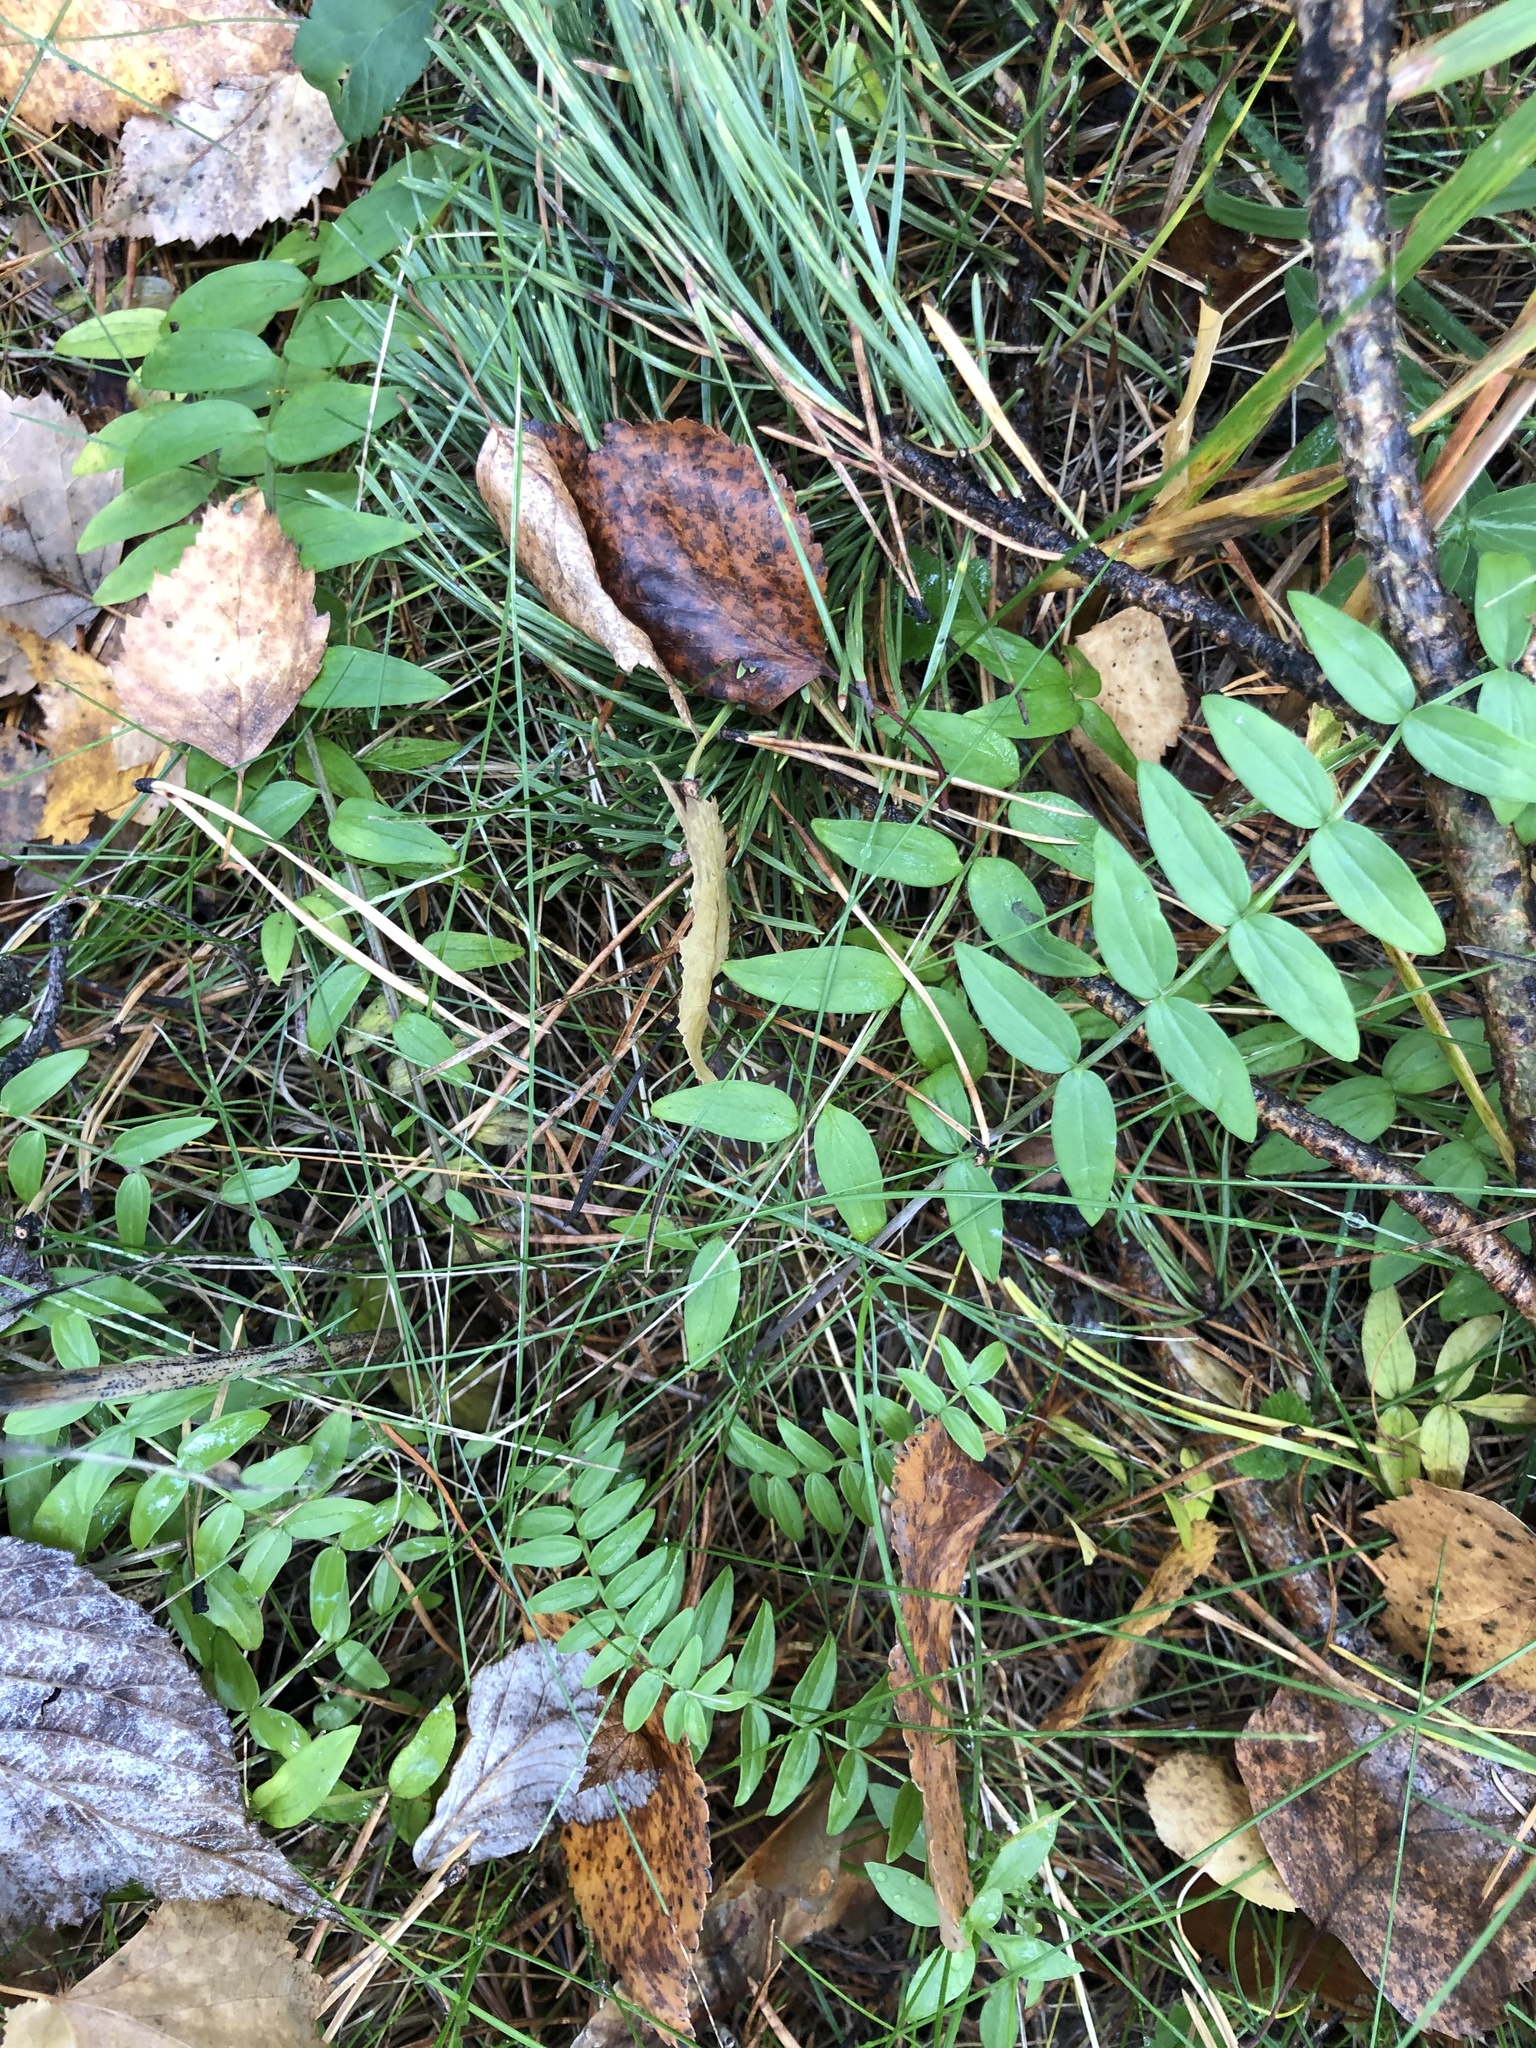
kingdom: Plantae
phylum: Tracheophyta
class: Magnoliopsida
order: Ericales
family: Polemoniaceae
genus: Polemonium
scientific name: Polemonium caeruleum
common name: Jacob's-ladder
